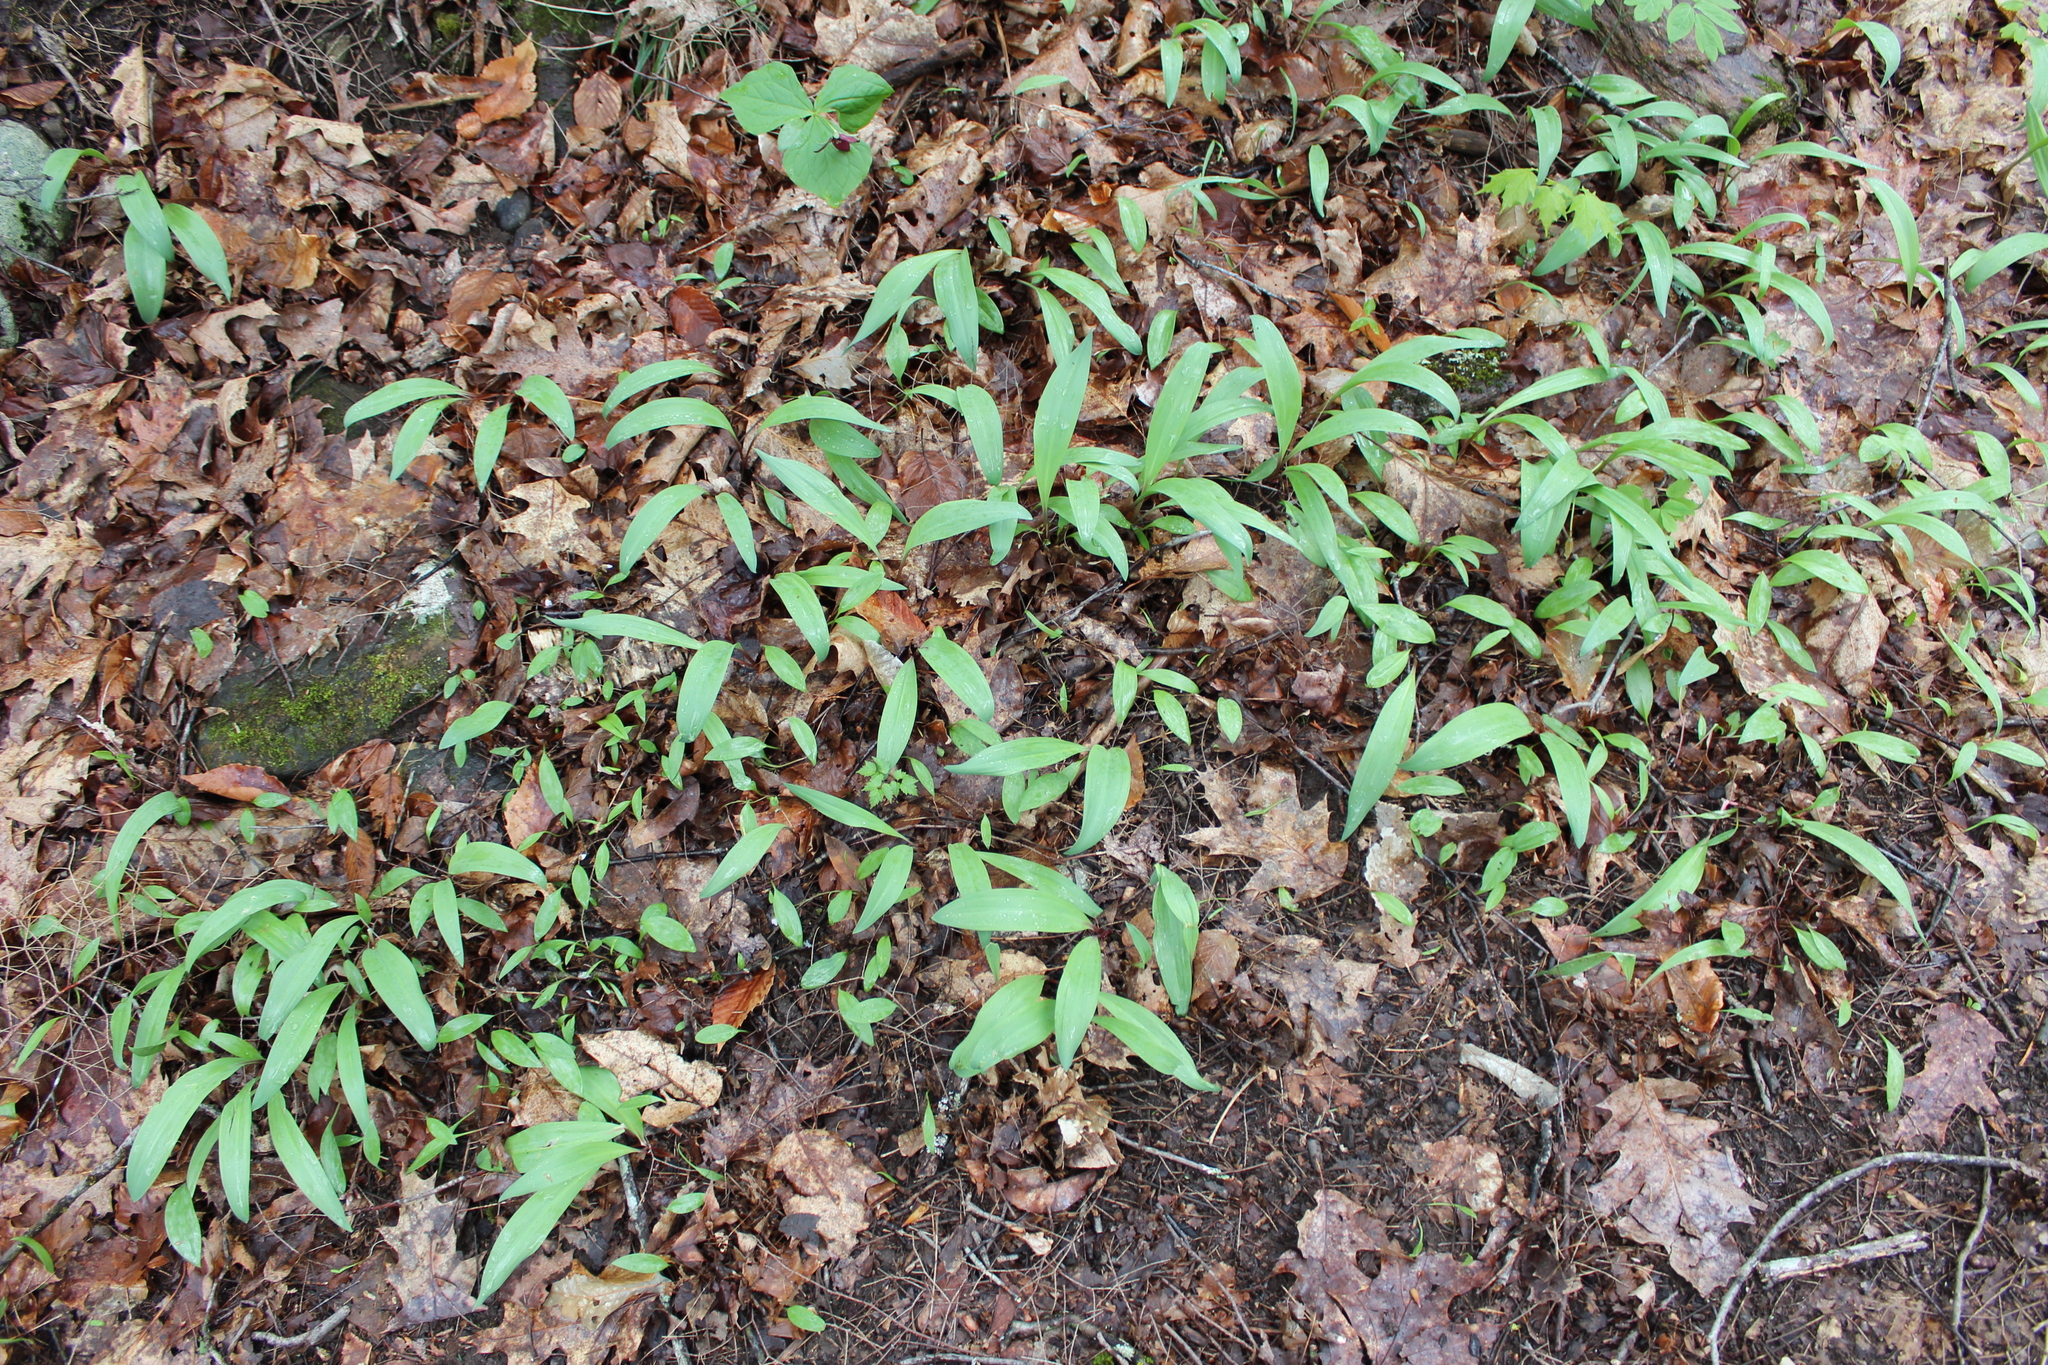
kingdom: Plantae
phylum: Tracheophyta
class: Liliopsida
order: Asparagales
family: Amaryllidaceae
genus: Allium
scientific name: Allium tricoccum
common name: Ramp
